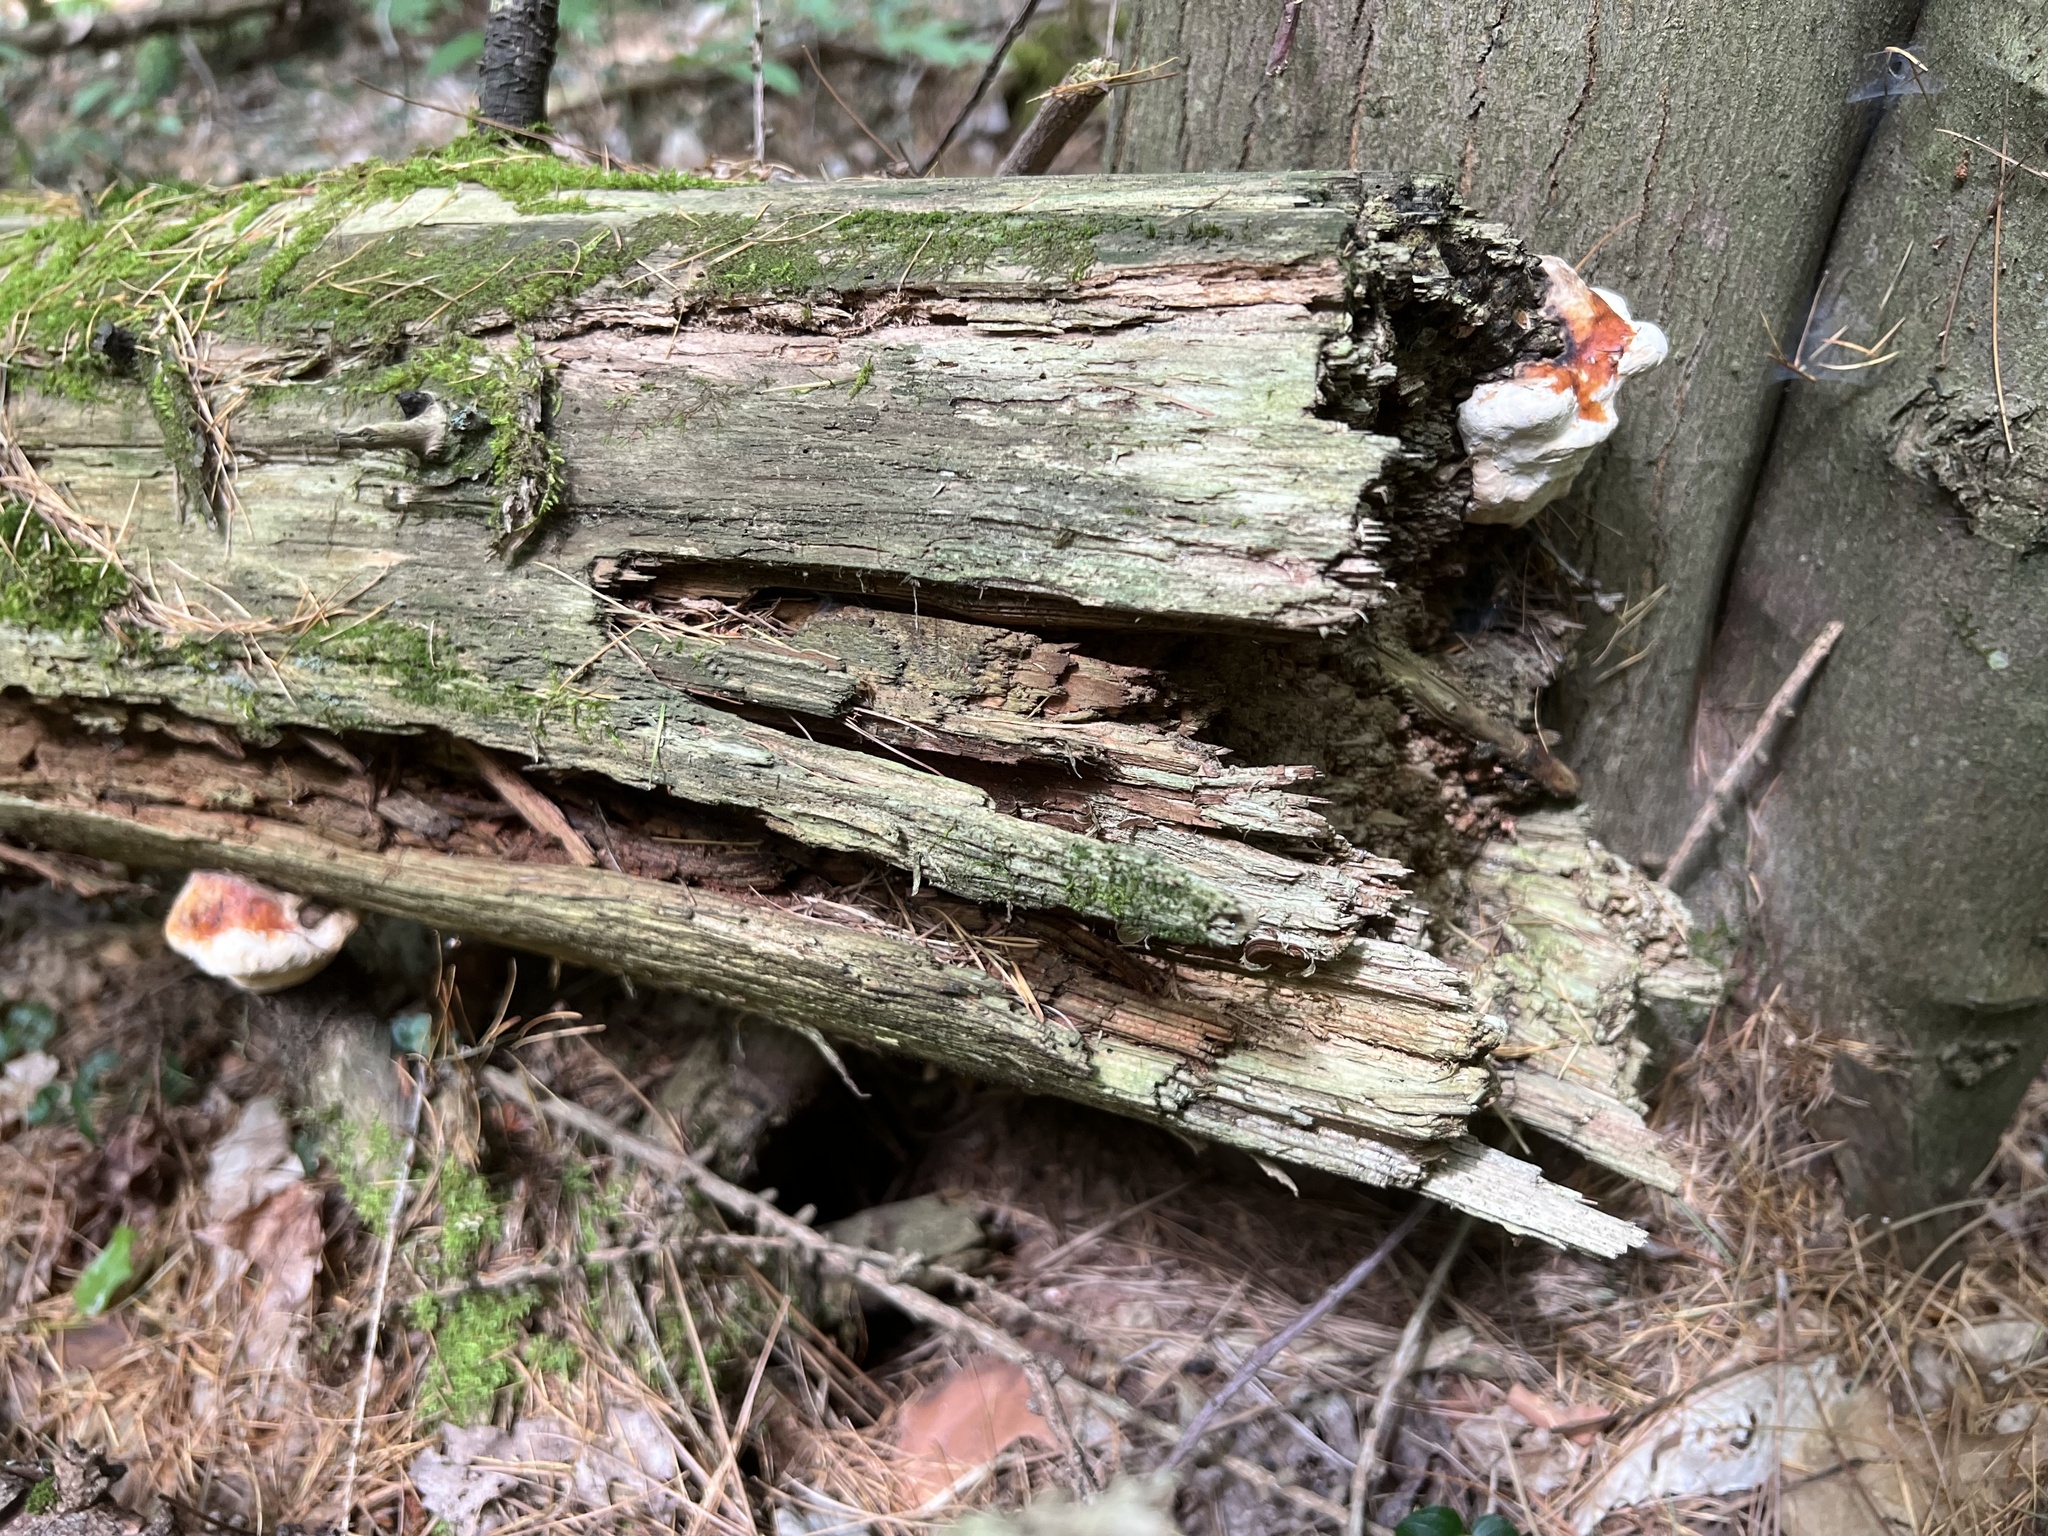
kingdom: Fungi
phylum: Basidiomycota
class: Agaricomycetes
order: Polyporales
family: Fomitopsidaceae
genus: Fomitopsis
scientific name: Fomitopsis mounceae
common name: Northern red belt
